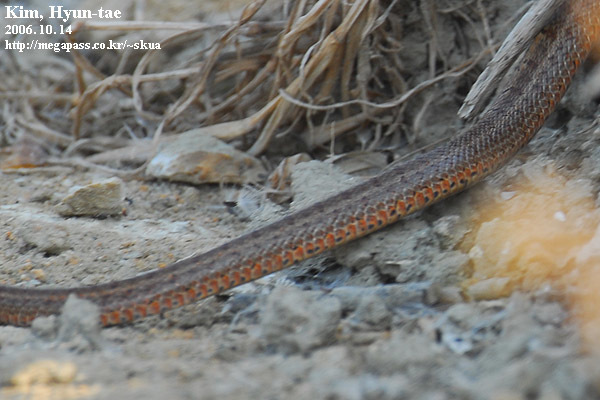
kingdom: Animalia
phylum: Chordata
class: Squamata
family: Colubridae
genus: Elaphe
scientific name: Elaphe dione
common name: Dione ratsnake
